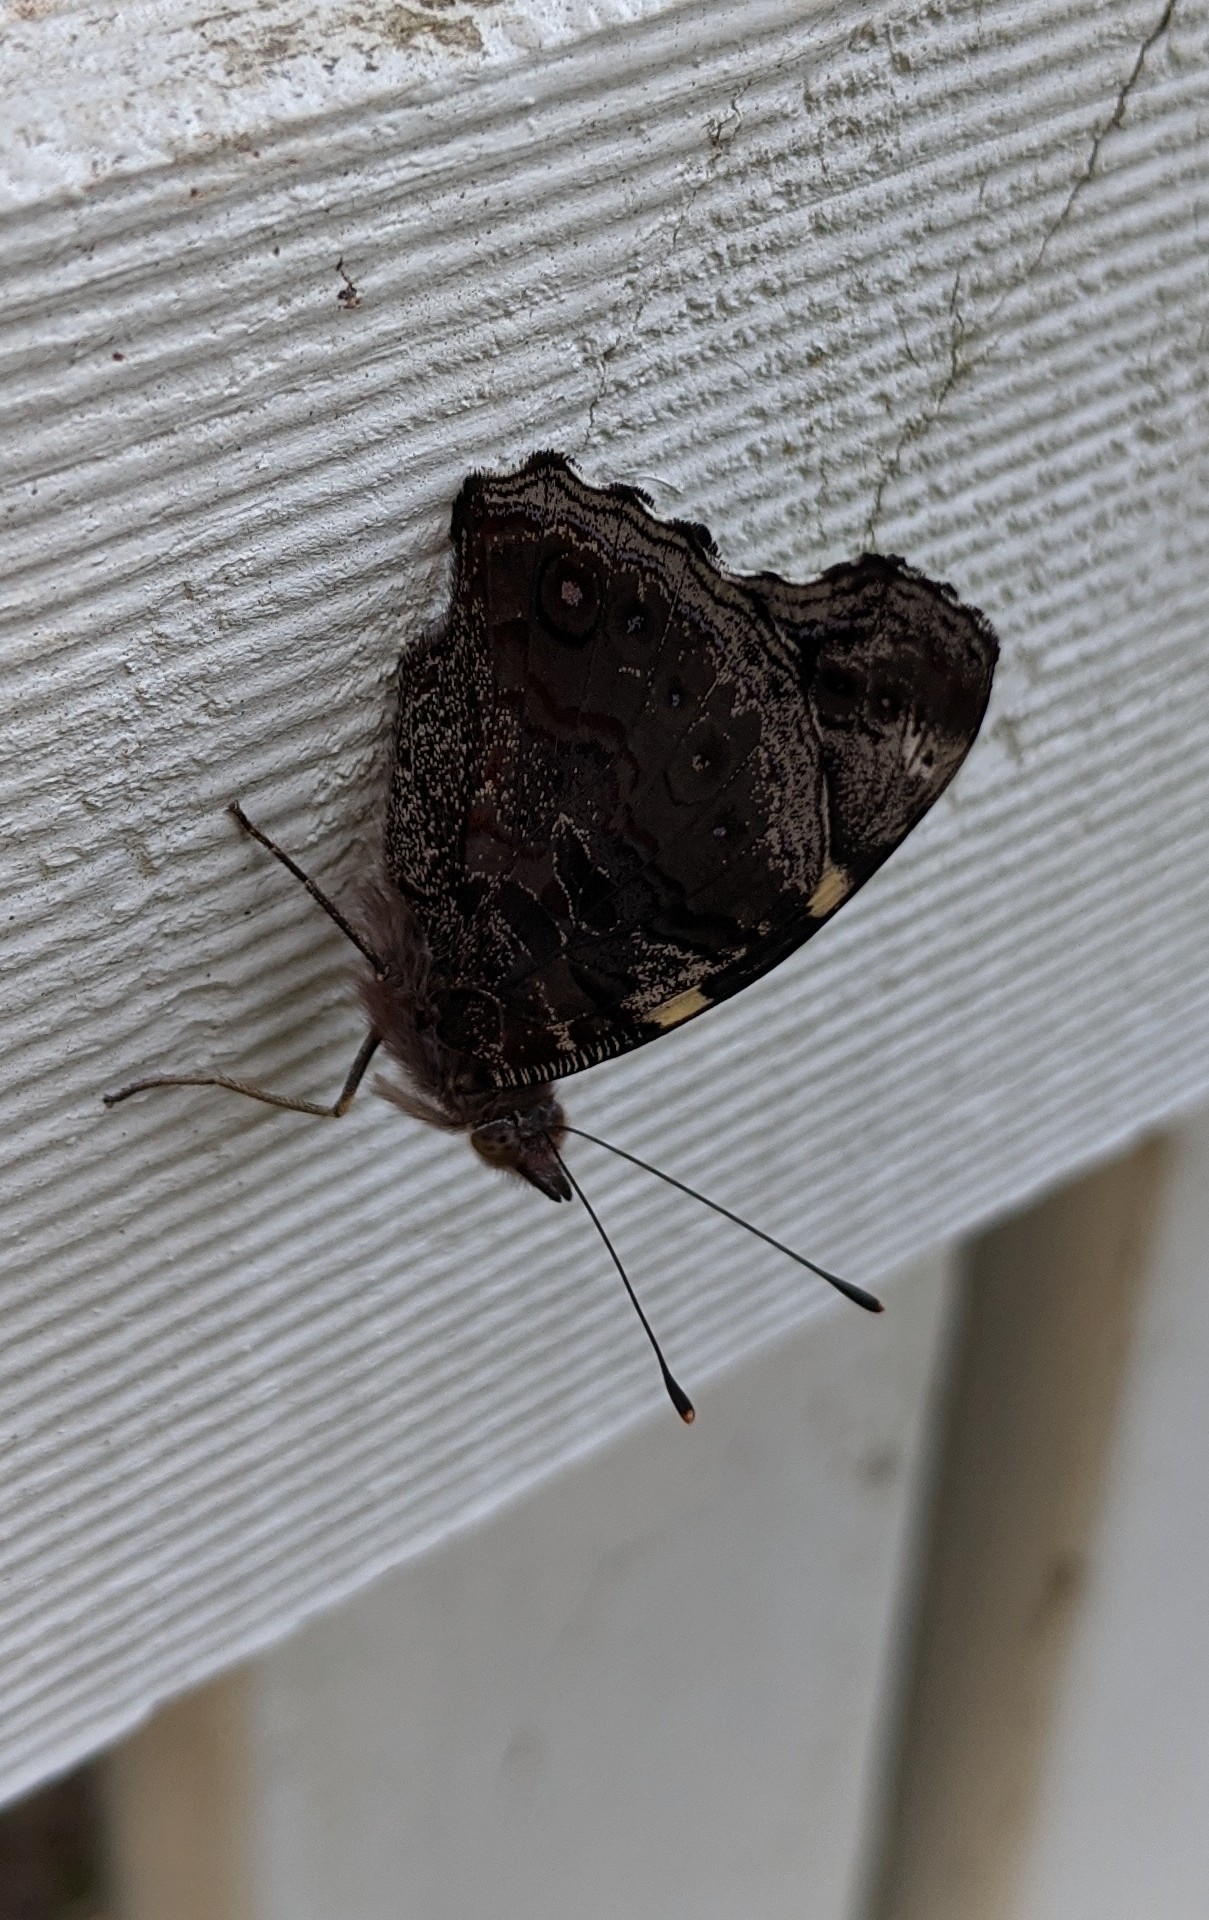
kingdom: Animalia
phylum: Arthropoda
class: Insecta
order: Lepidoptera
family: Nymphalidae
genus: Vanessa
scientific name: Vanessa itea
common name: Yellow admiral
